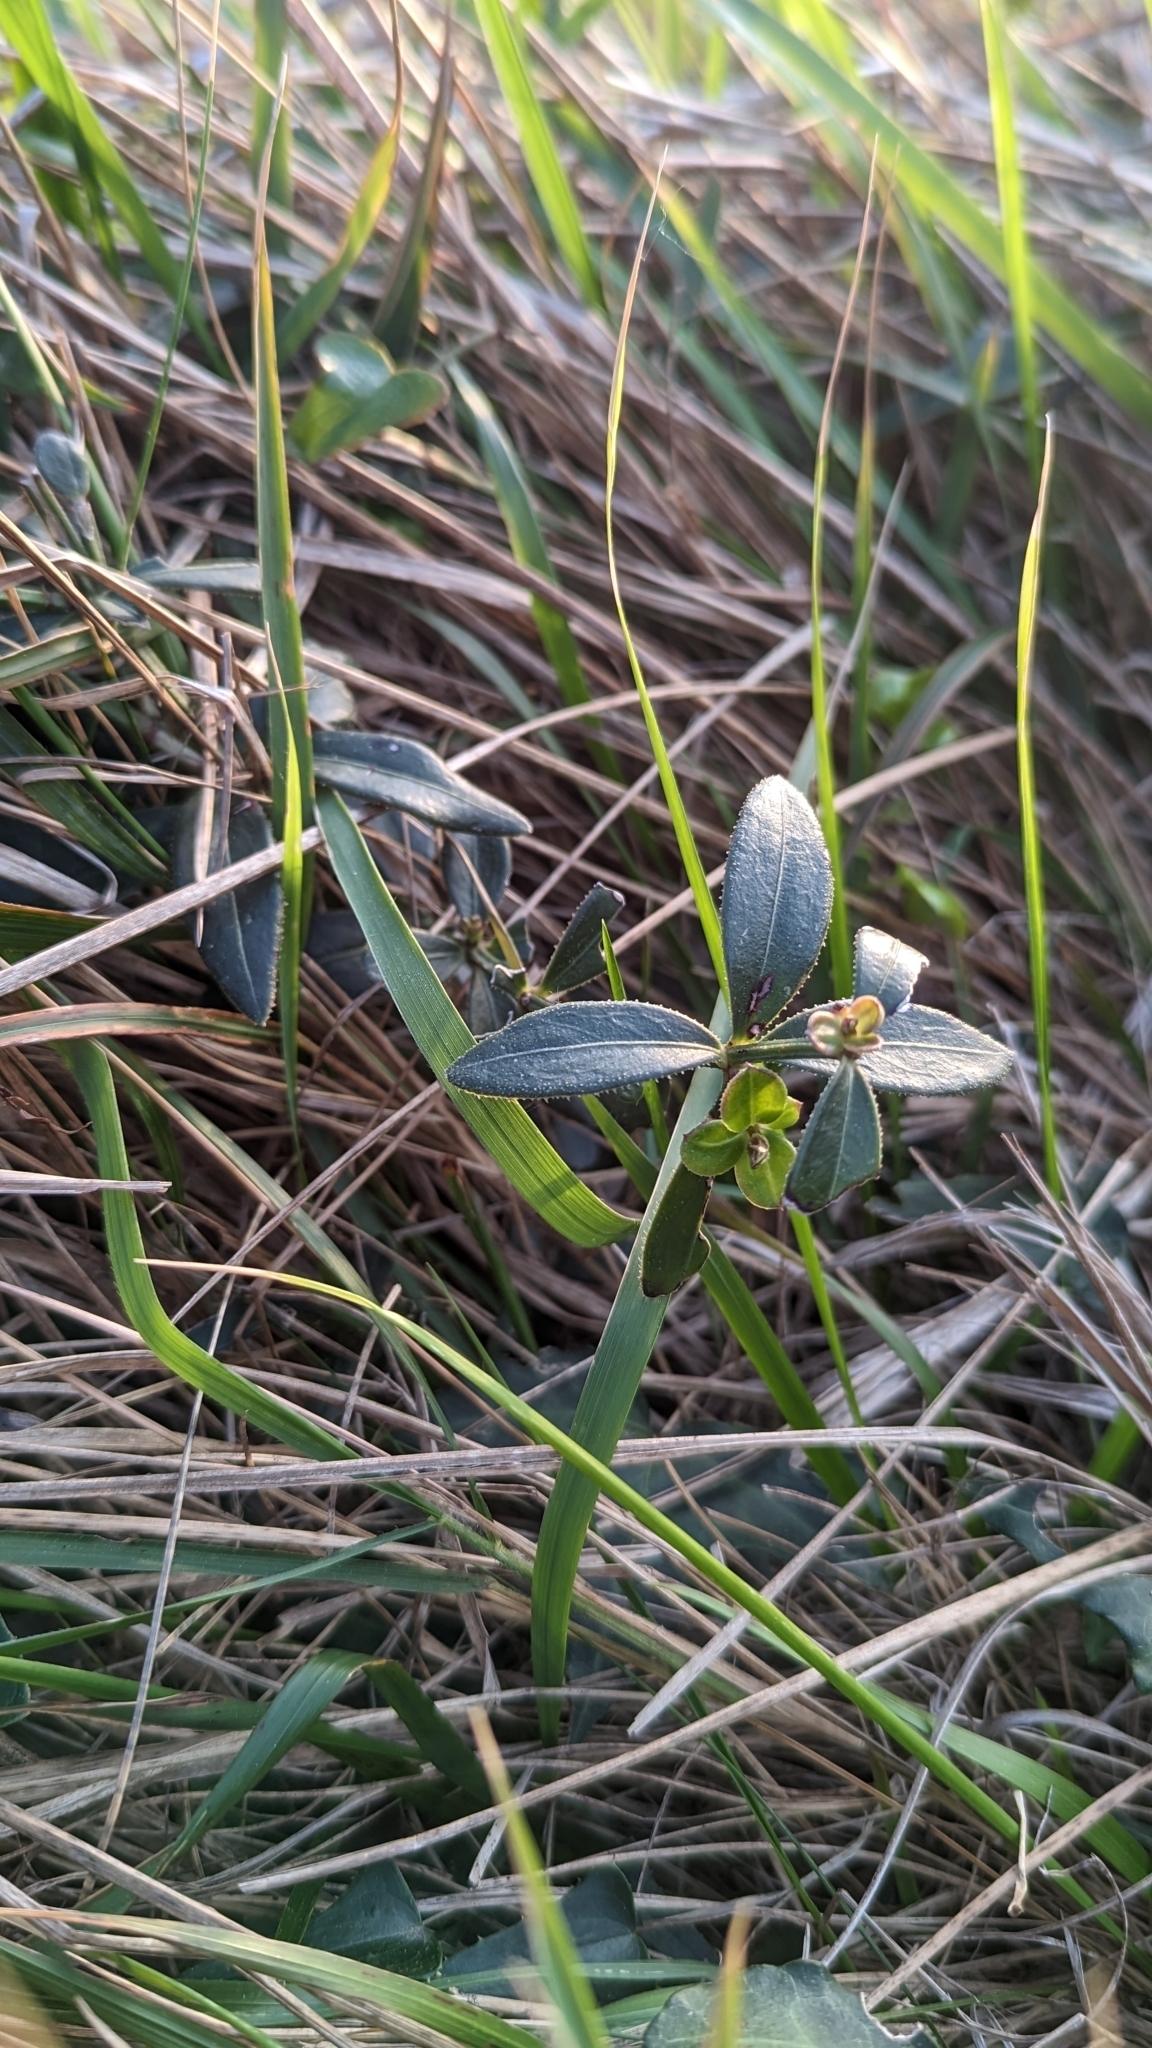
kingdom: Plantae
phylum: Tracheophyta
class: Magnoliopsida
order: Gentianales
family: Rubiaceae
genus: Rubia
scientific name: Rubia peregrina
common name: Wild madder
